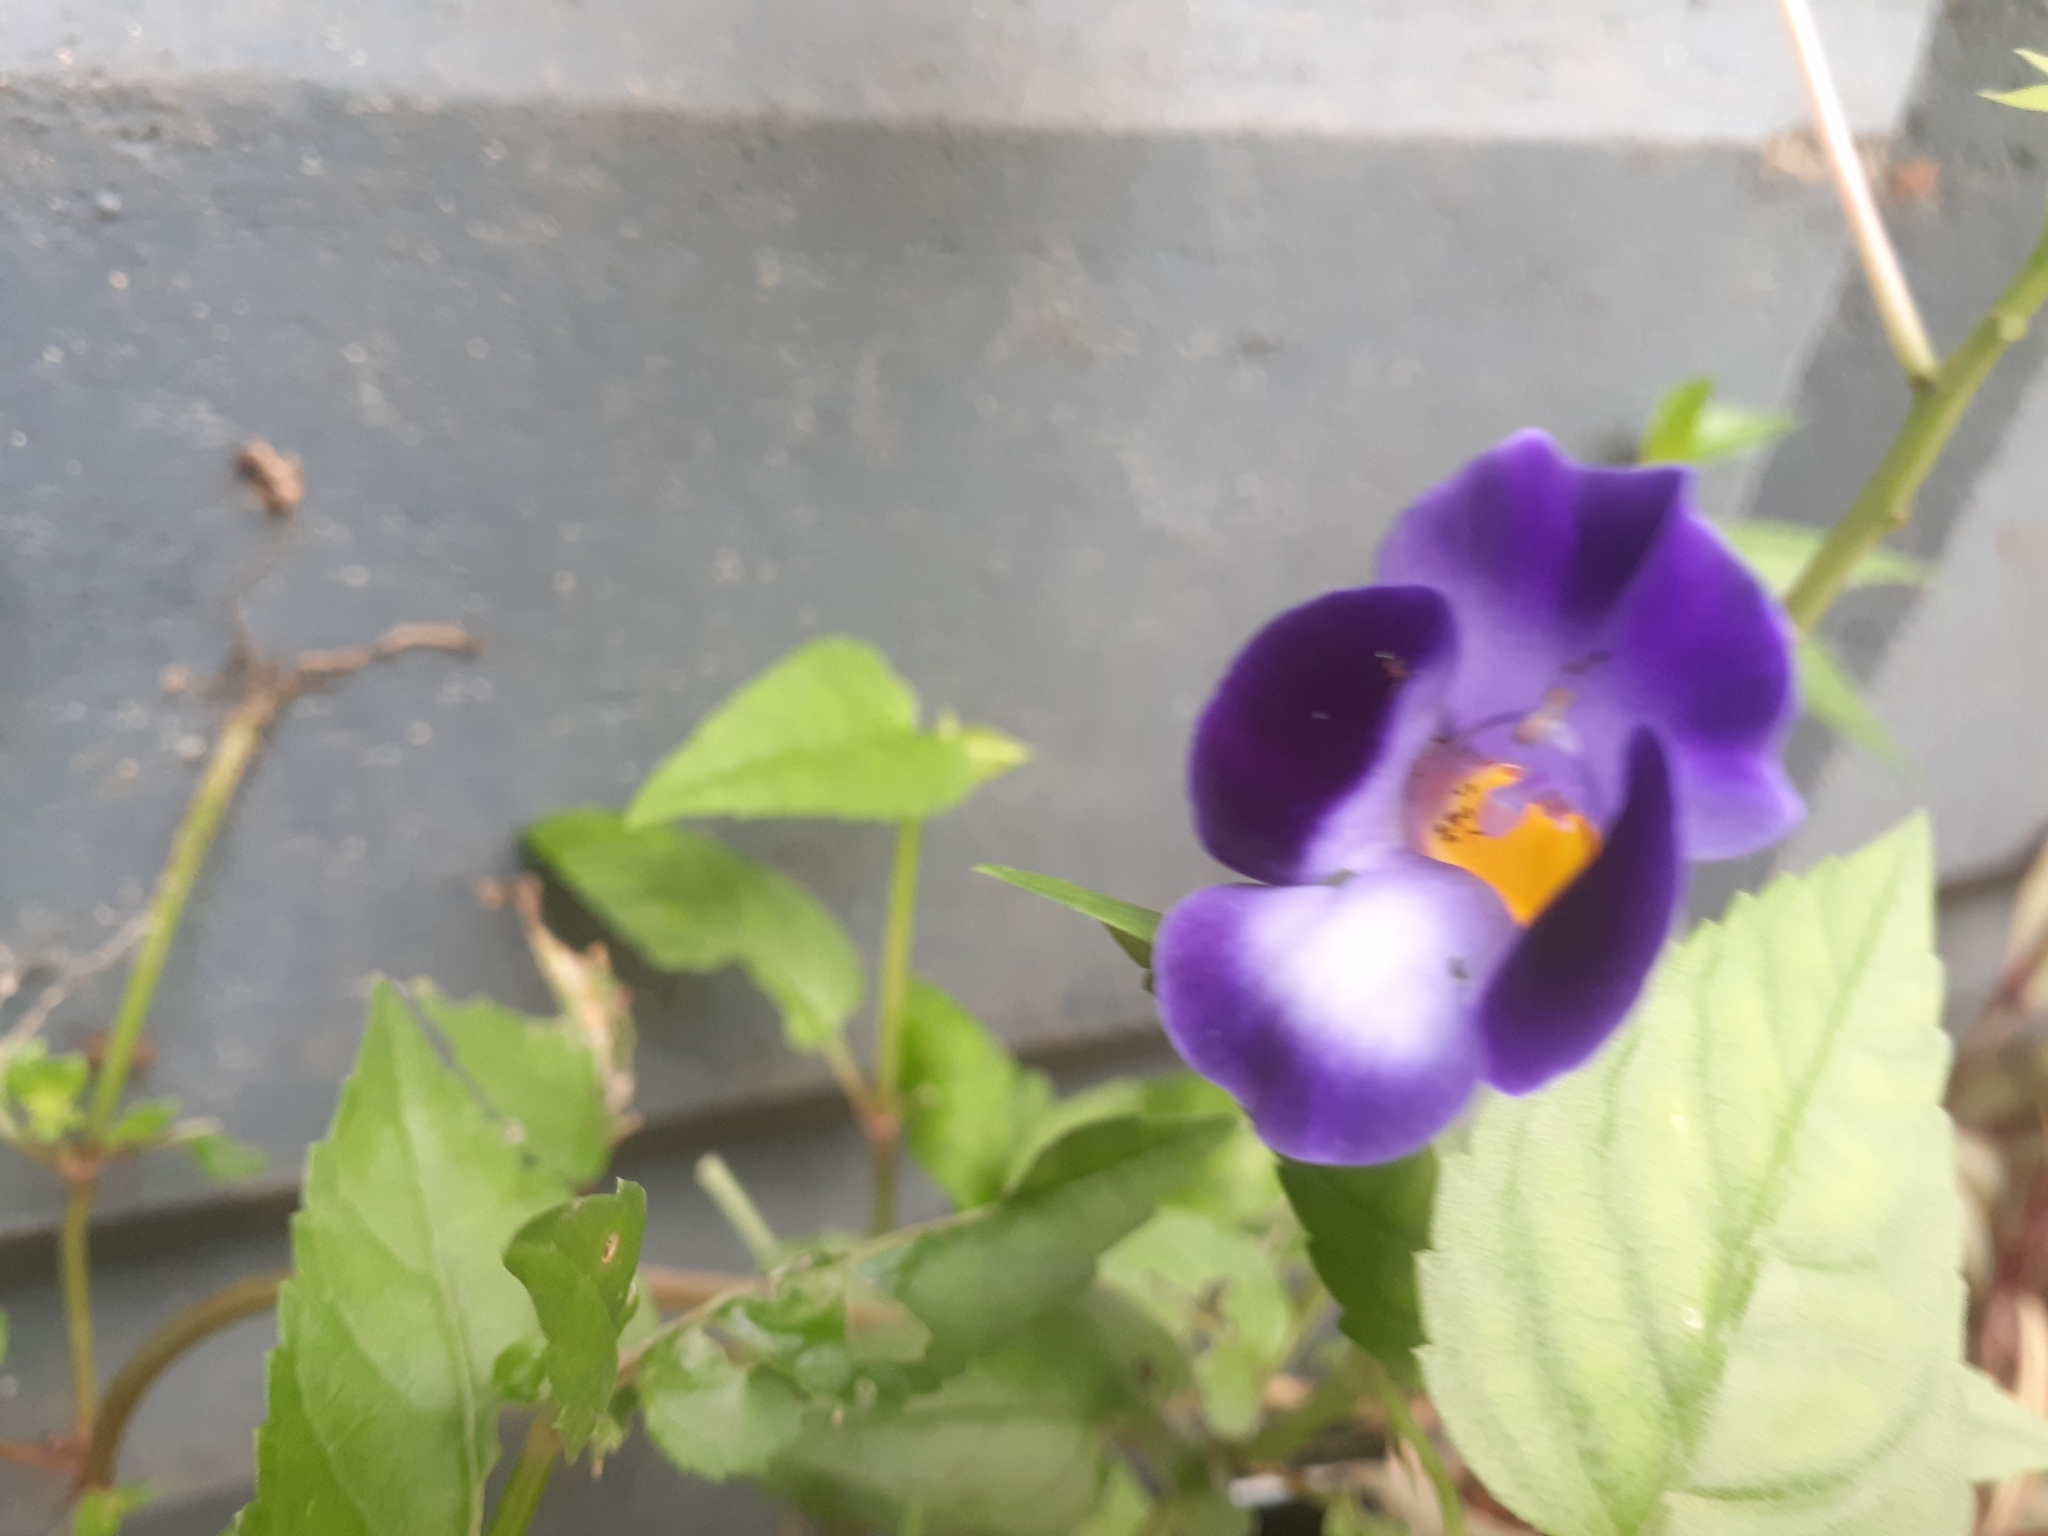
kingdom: Plantae
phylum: Tracheophyta
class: Magnoliopsida
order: Lamiales
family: Linderniaceae
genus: Torenia
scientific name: Torenia fournieri
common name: Bluewings
